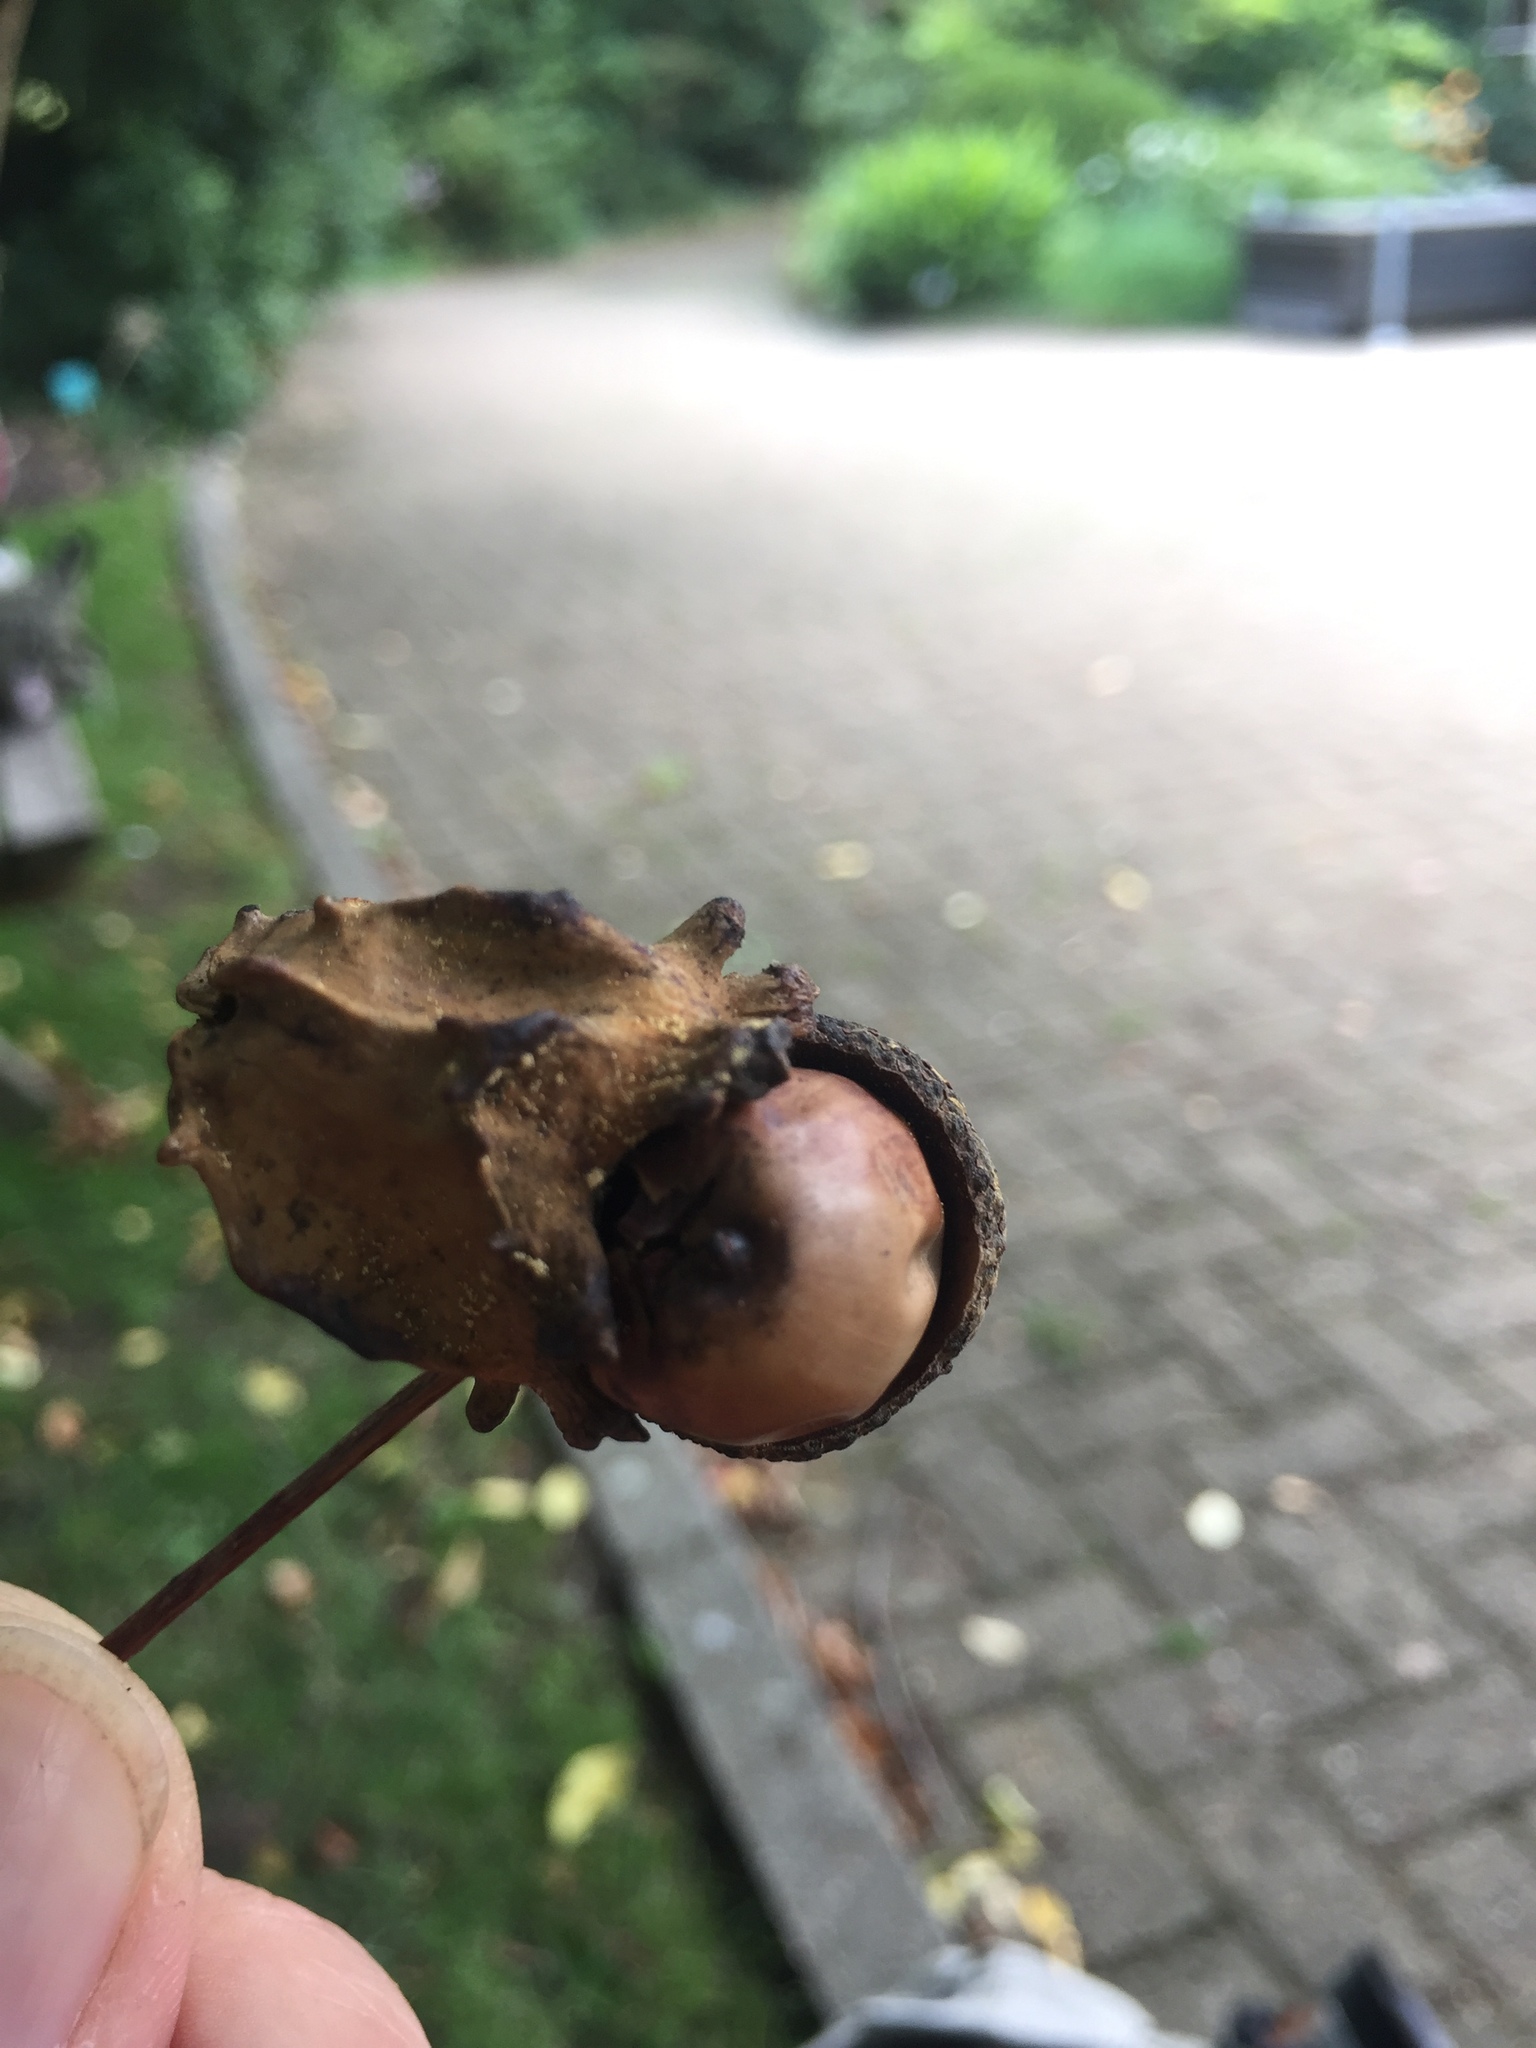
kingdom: Animalia
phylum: Arthropoda
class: Insecta
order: Hymenoptera
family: Cynipidae
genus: Andricus
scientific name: Andricus quercuscalicis
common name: Knopper gall
